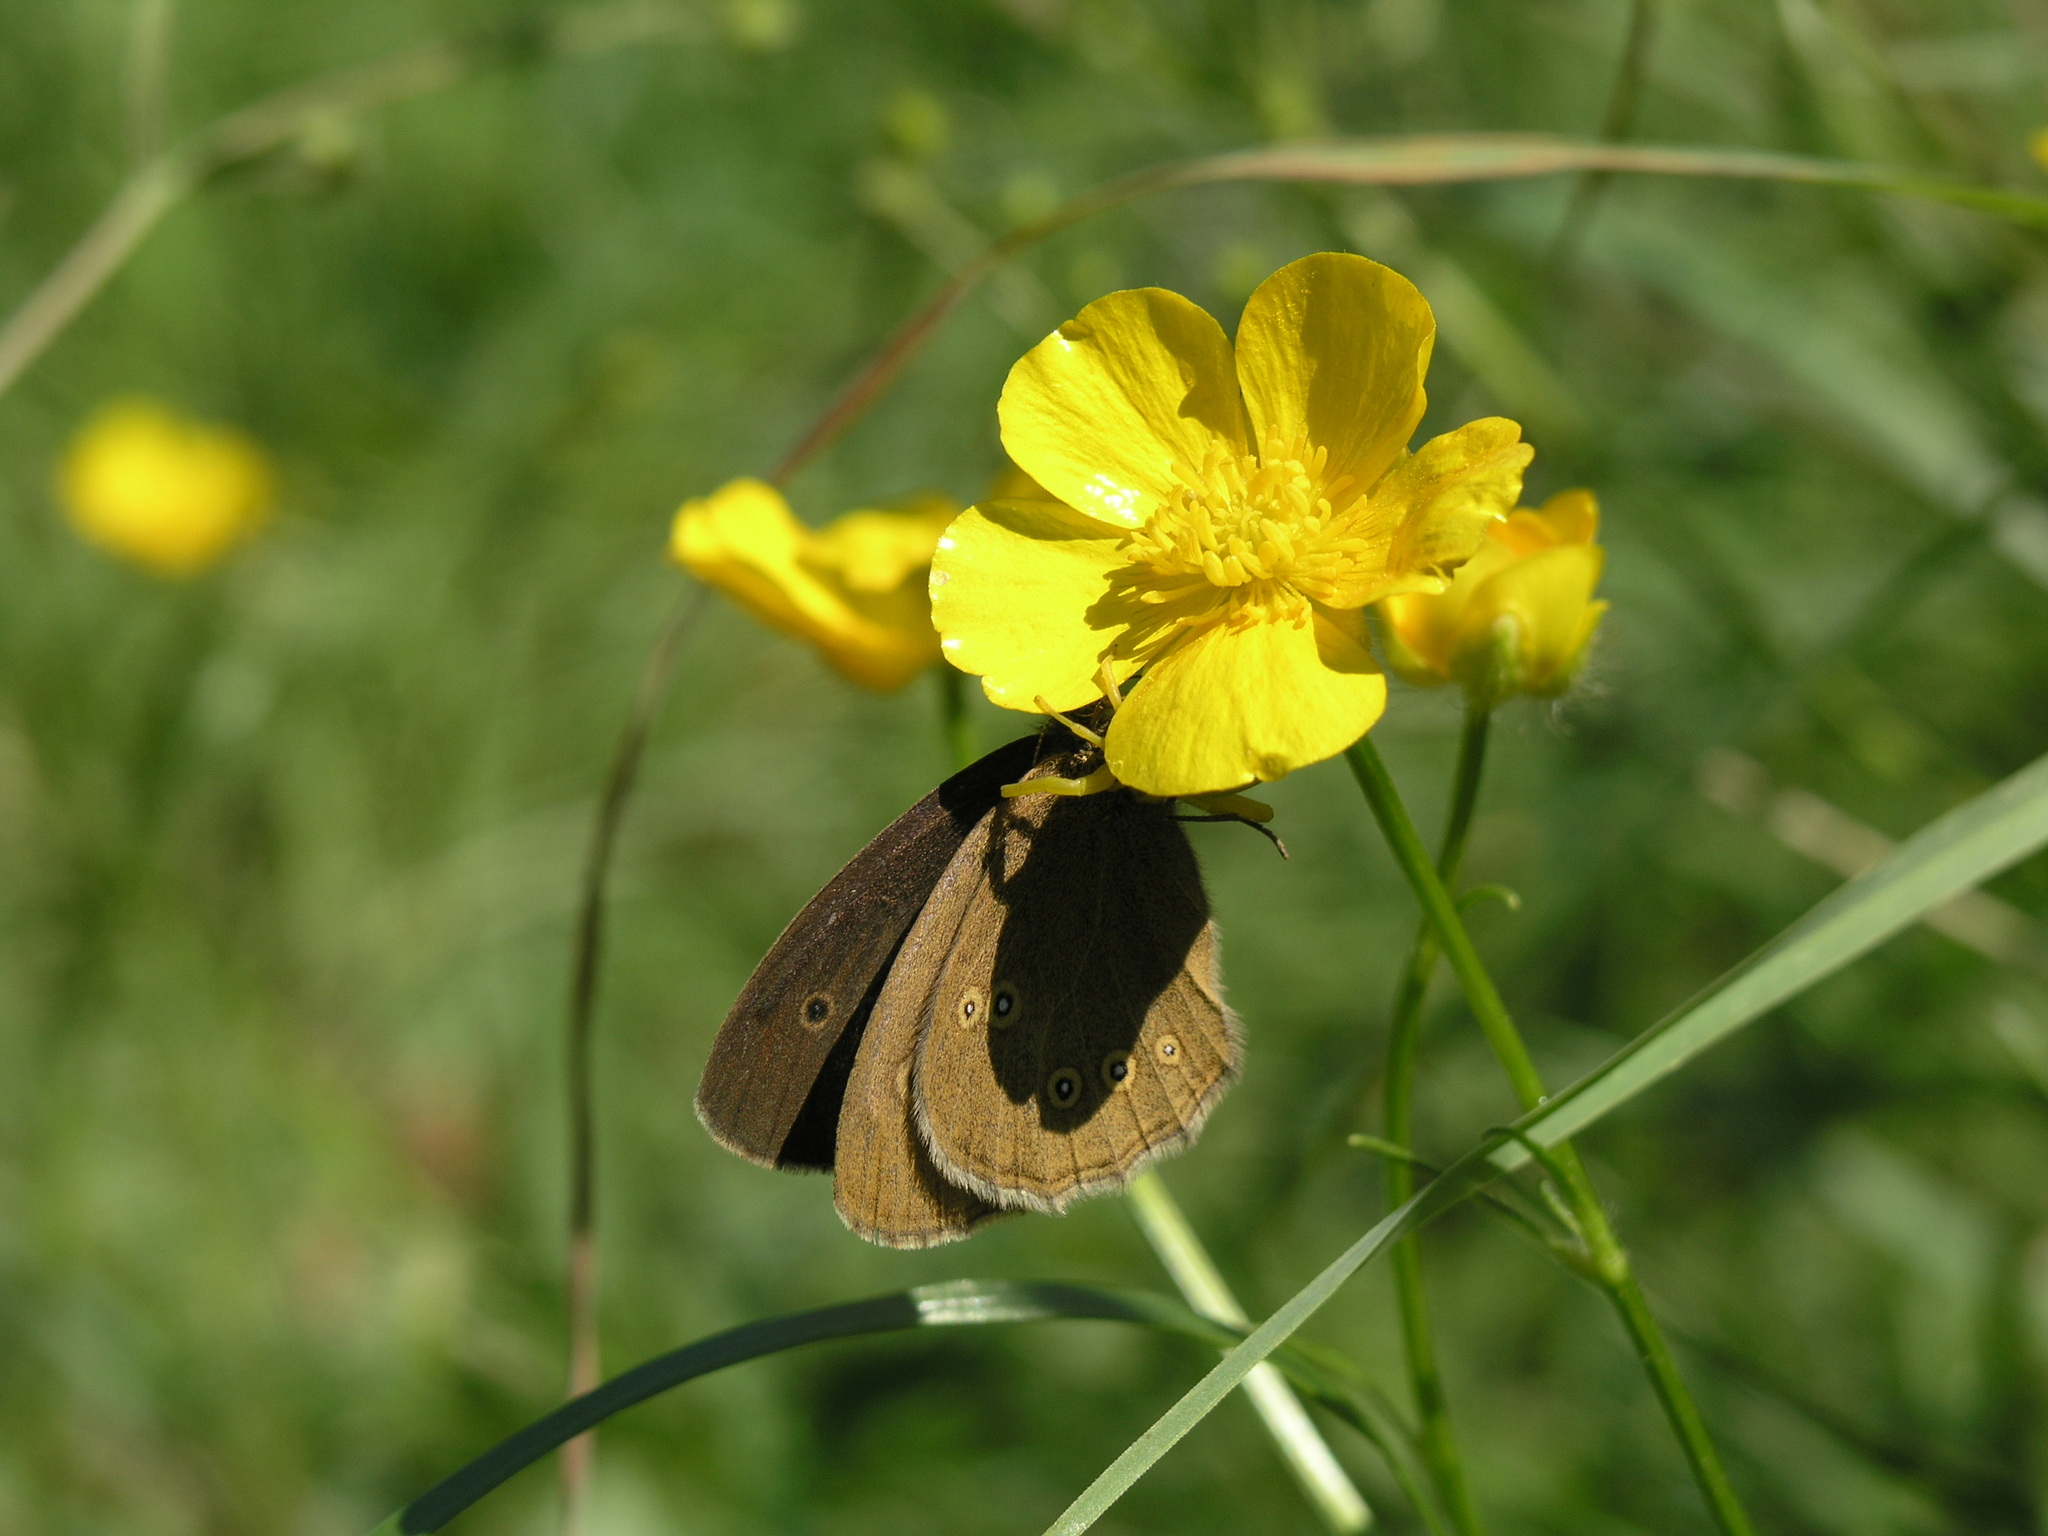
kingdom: Animalia
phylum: Arthropoda
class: Insecta
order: Lepidoptera
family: Nymphalidae
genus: Aphantopus
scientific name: Aphantopus hyperantus
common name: Ringlet
